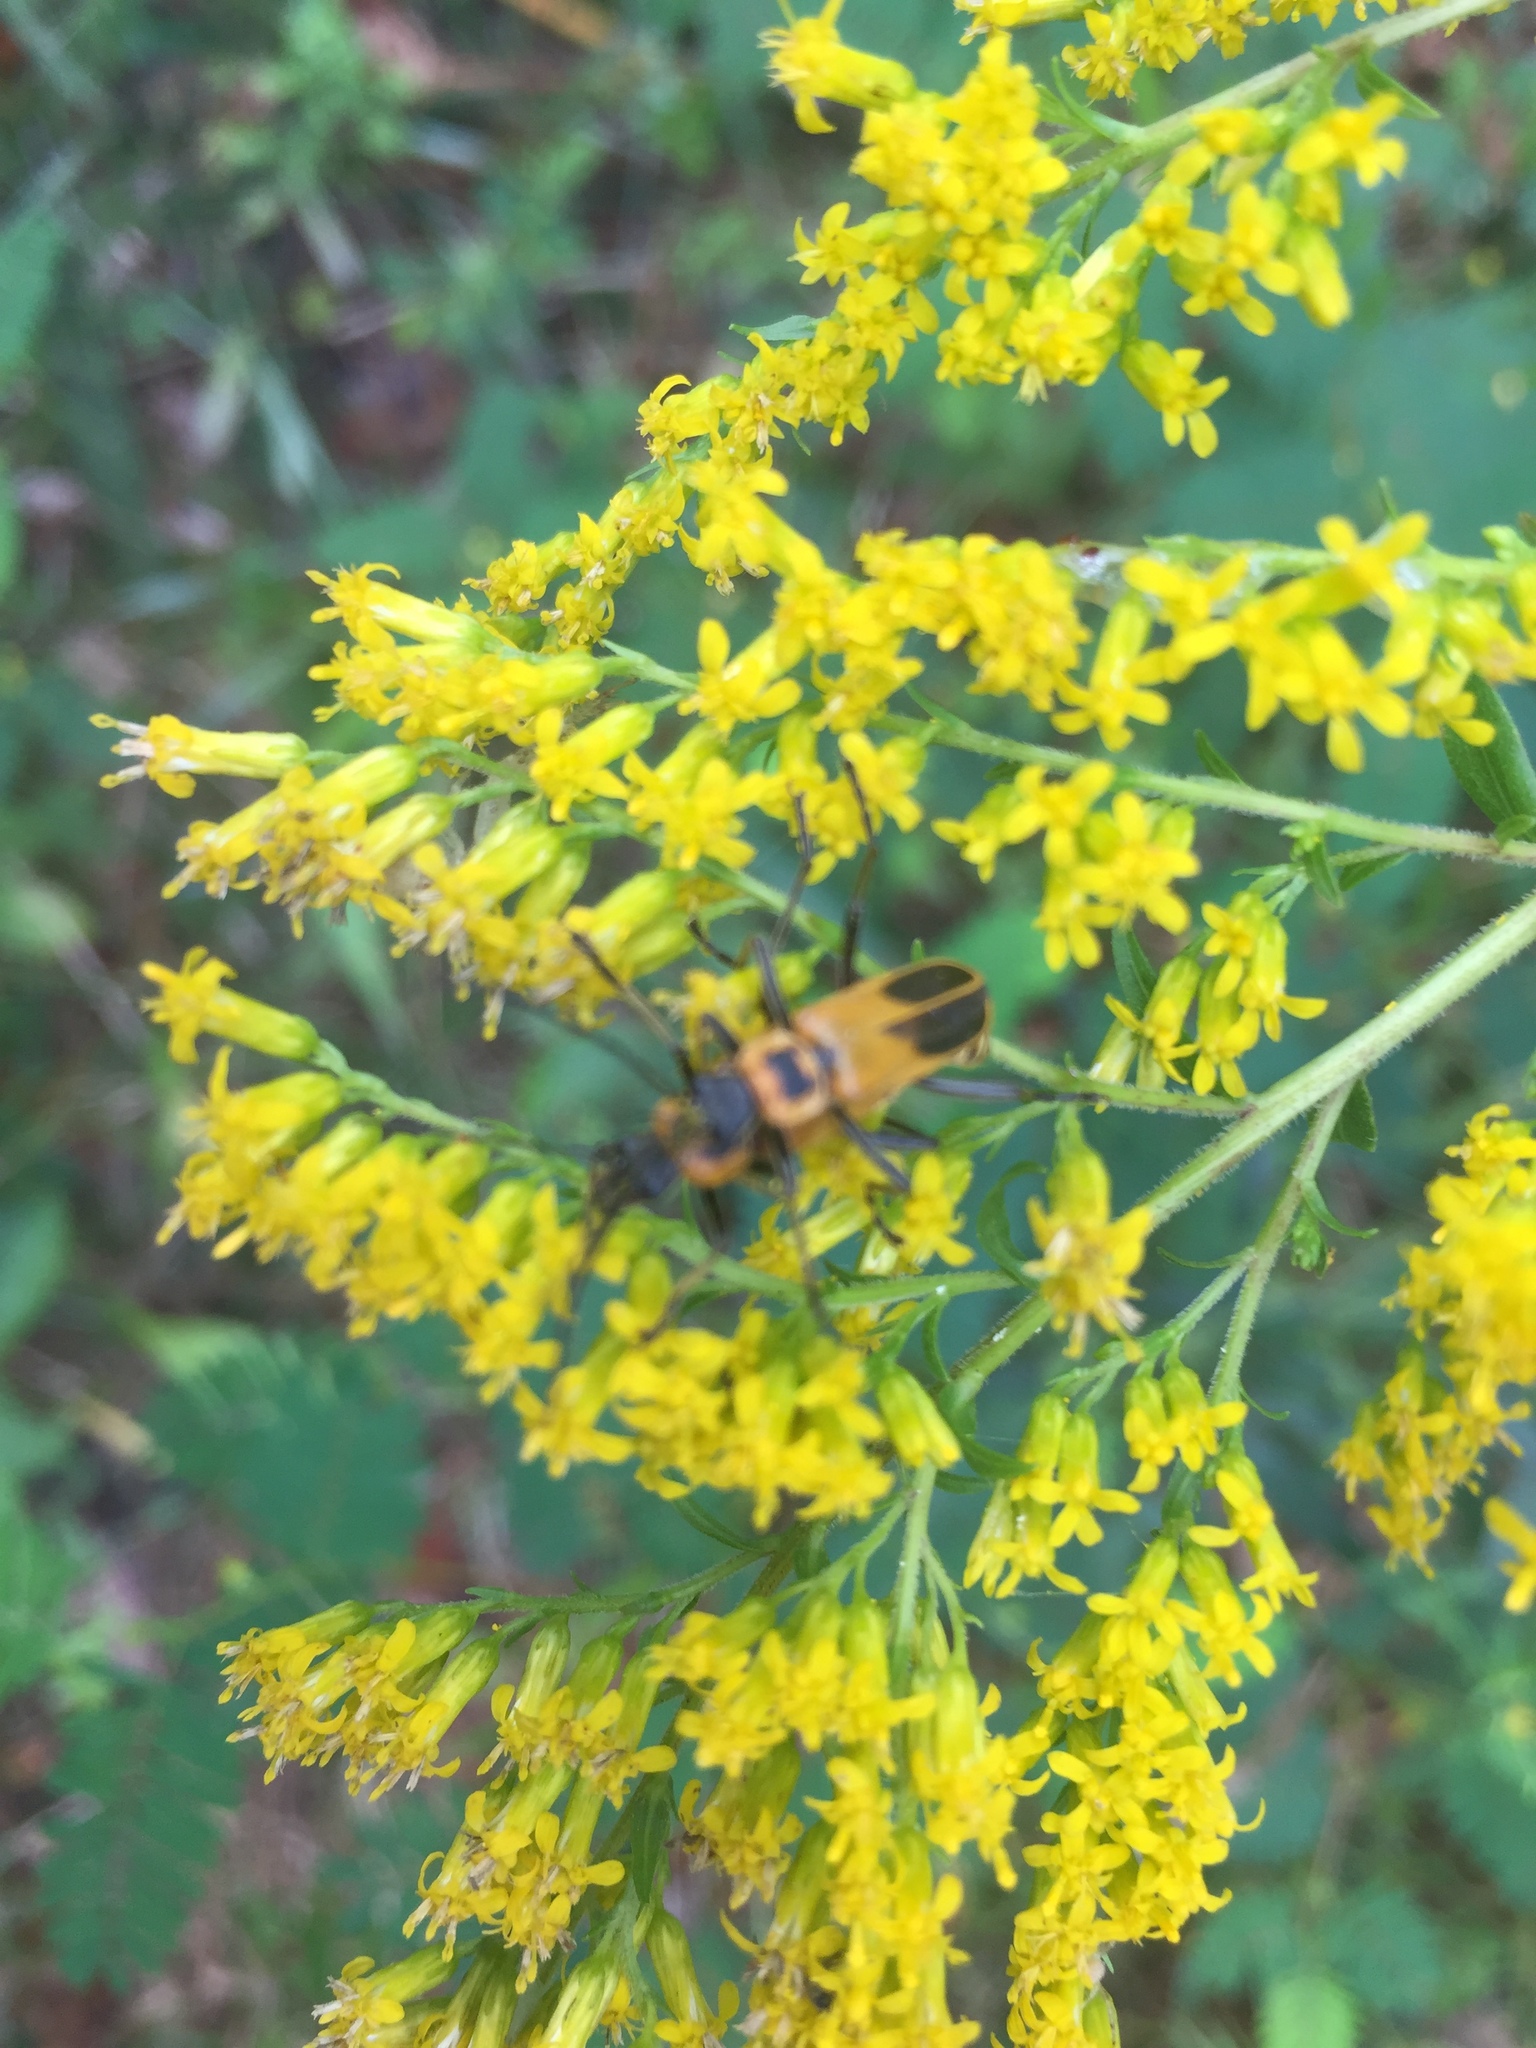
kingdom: Animalia
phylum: Arthropoda
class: Insecta
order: Coleoptera
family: Cantharidae
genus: Chauliognathus
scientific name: Chauliognathus pensylvanicus
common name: Goldenrod soldier beetle
